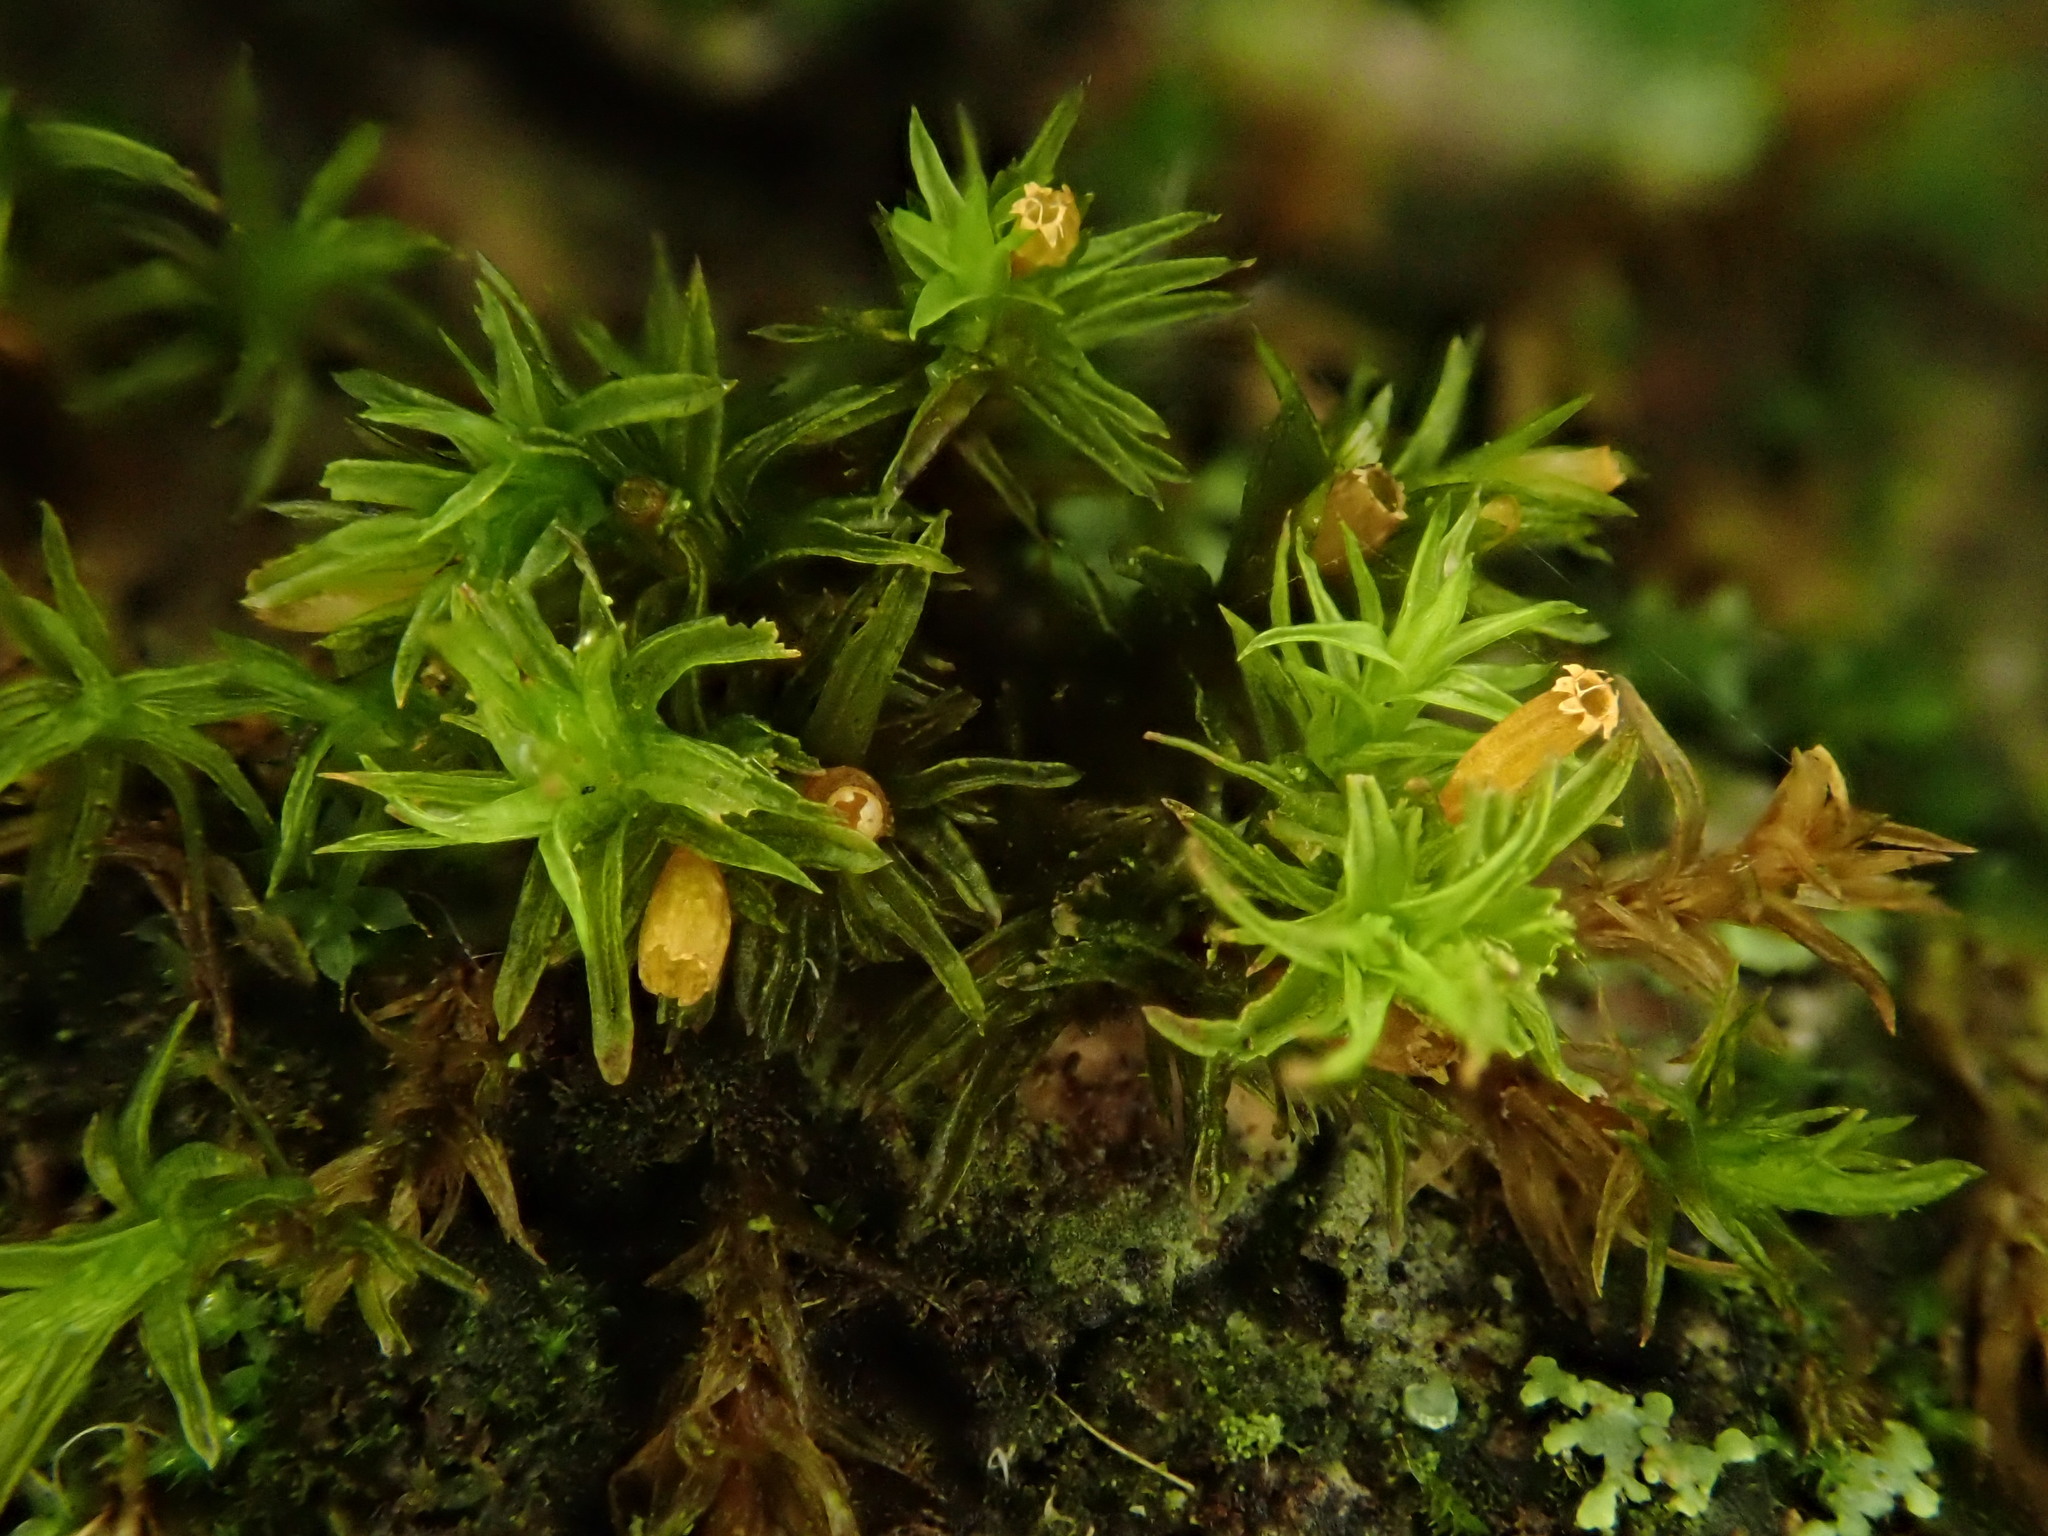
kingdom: Plantae
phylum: Bryophyta
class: Bryopsida
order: Orthotrichales
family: Orthotrichaceae
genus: Lewinskya
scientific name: Lewinskya affinis
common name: Wood bristle-moss
